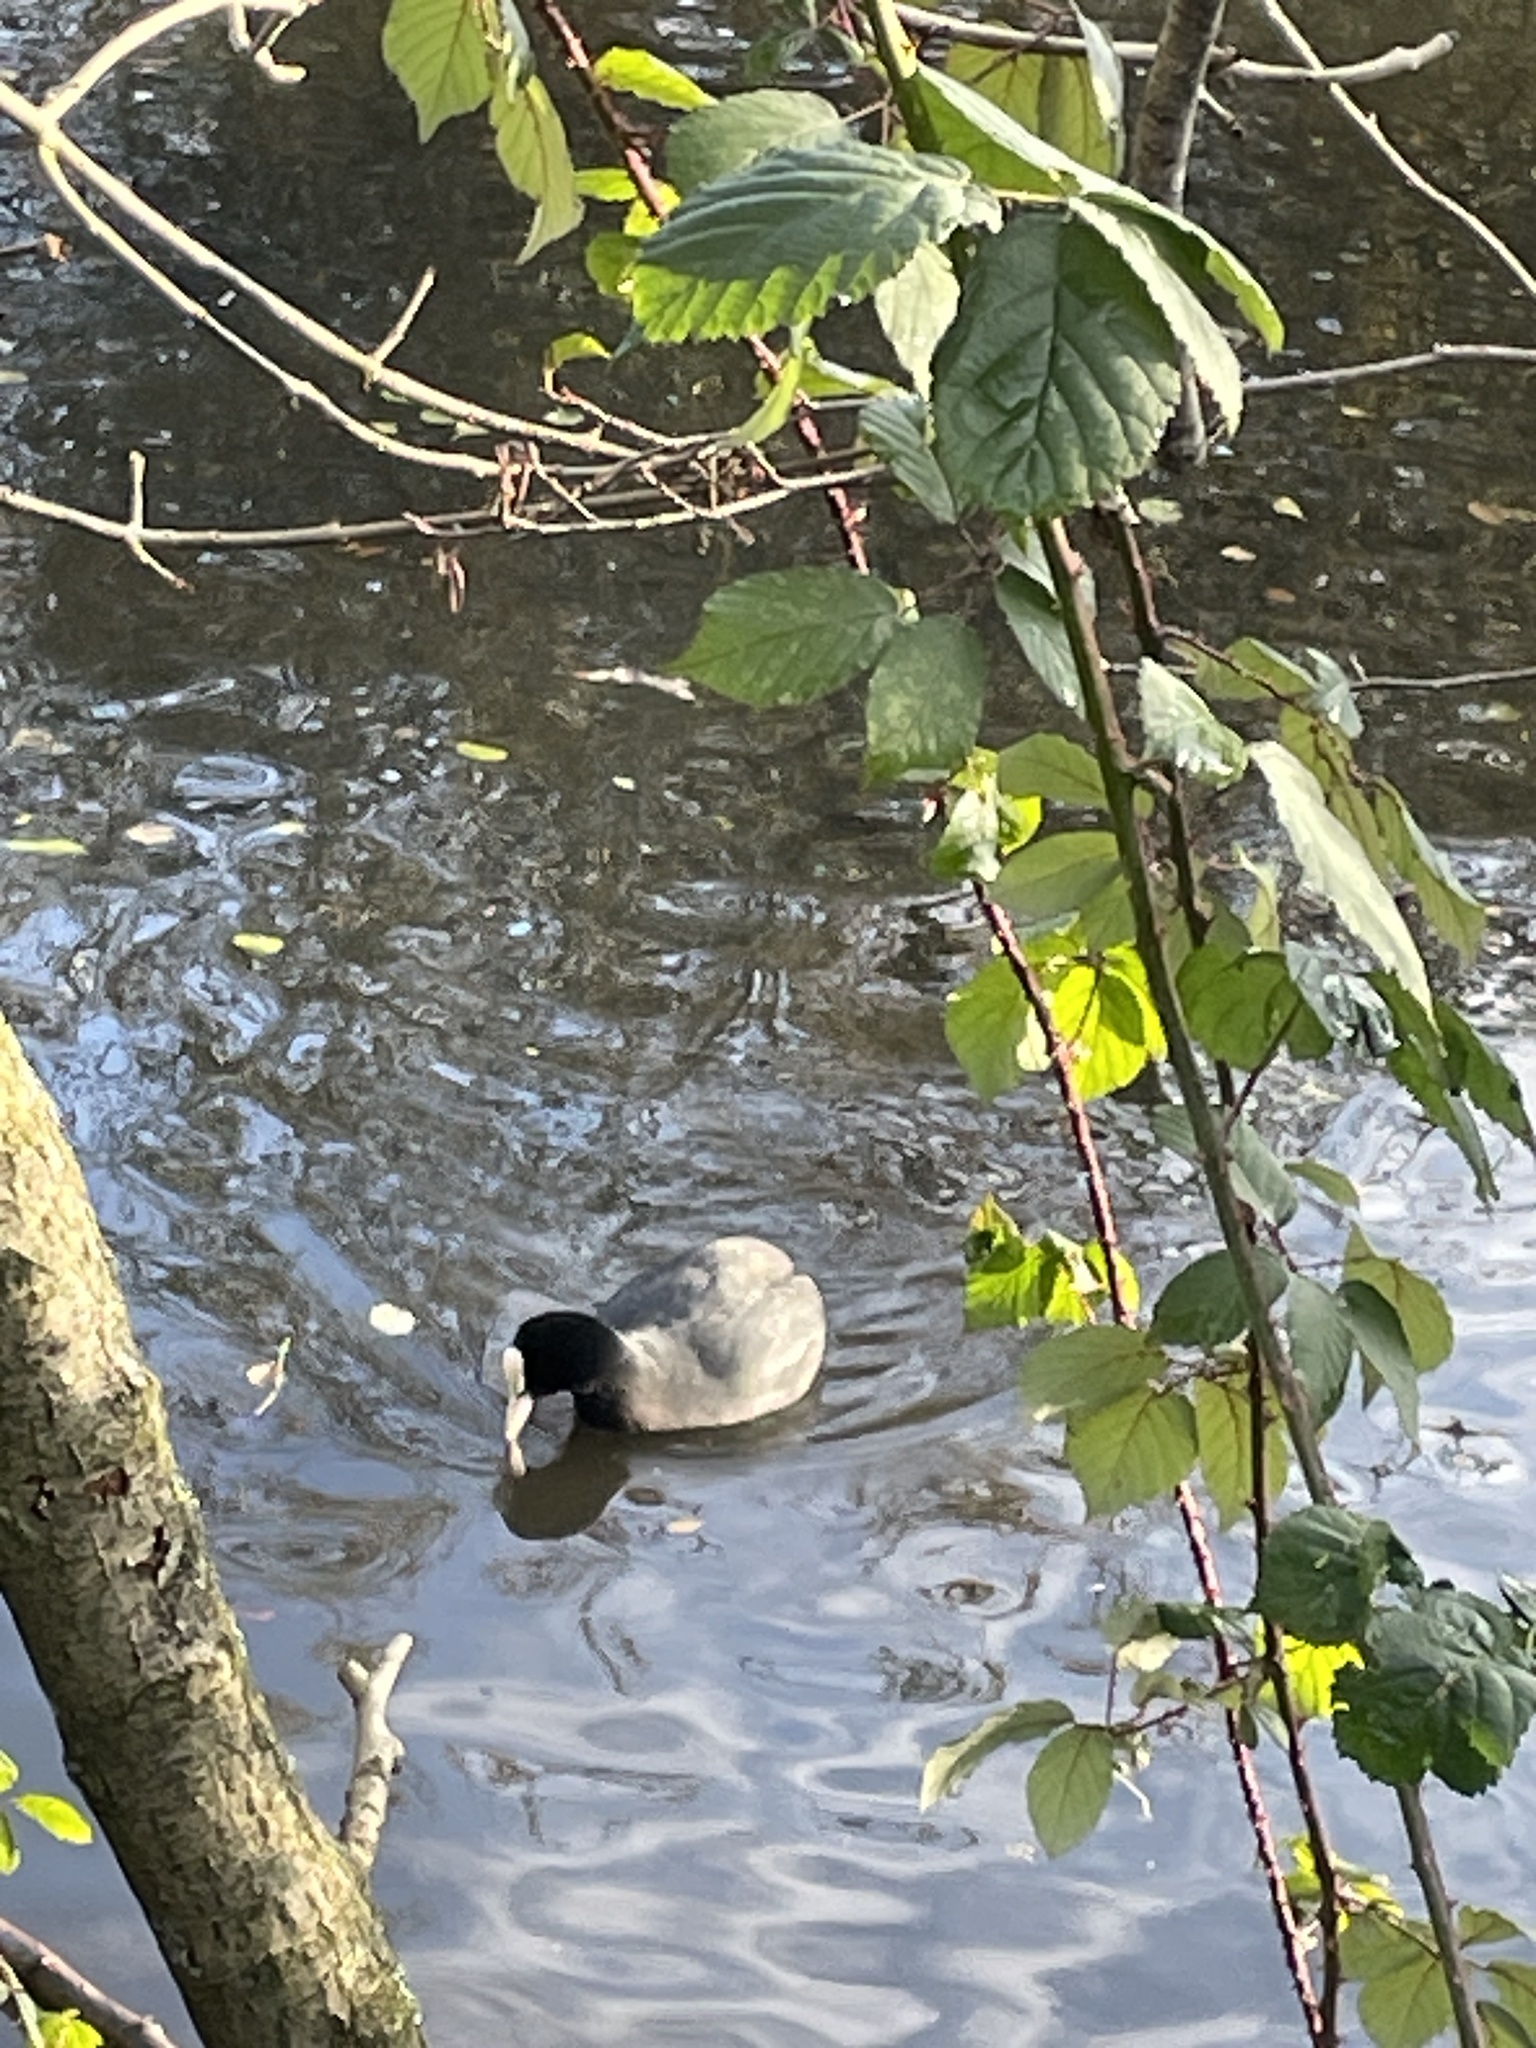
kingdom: Animalia
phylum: Chordata
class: Aves
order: Gruiformes
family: Rallidae
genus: Fulica
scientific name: Fulica atra
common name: Eurasian coot
